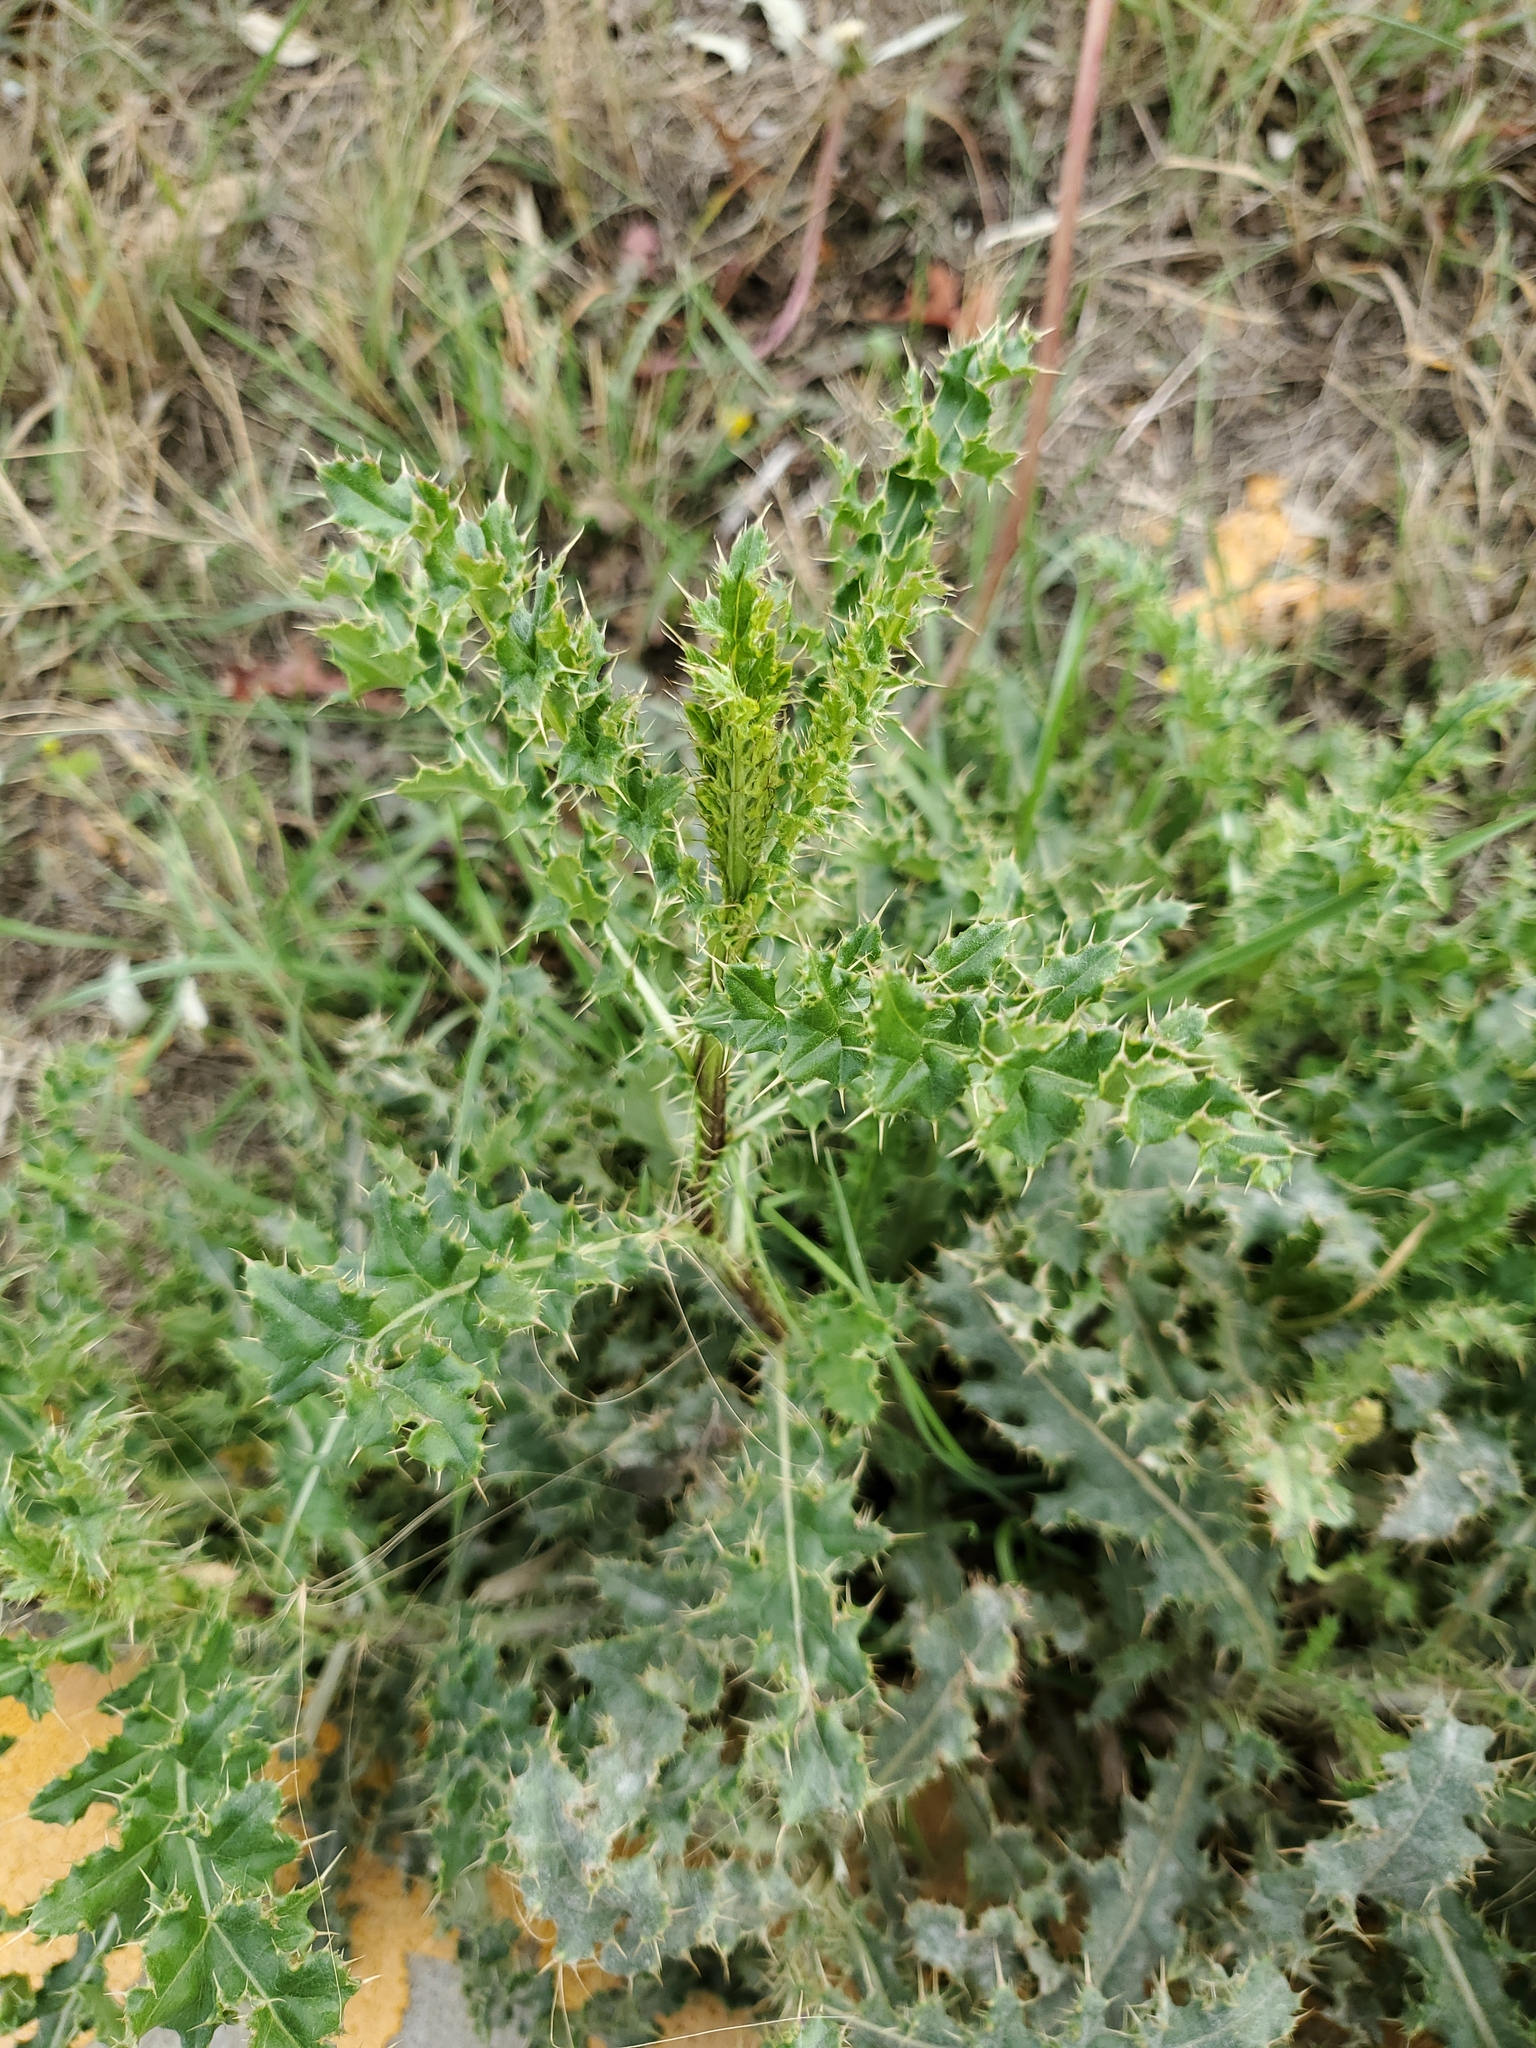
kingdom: Plantae
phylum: Tracheophyta
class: Magnoliopsida
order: Asterales
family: Asteraceae
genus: Cirsium
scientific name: Cirsium arvense
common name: Creeping thistle
